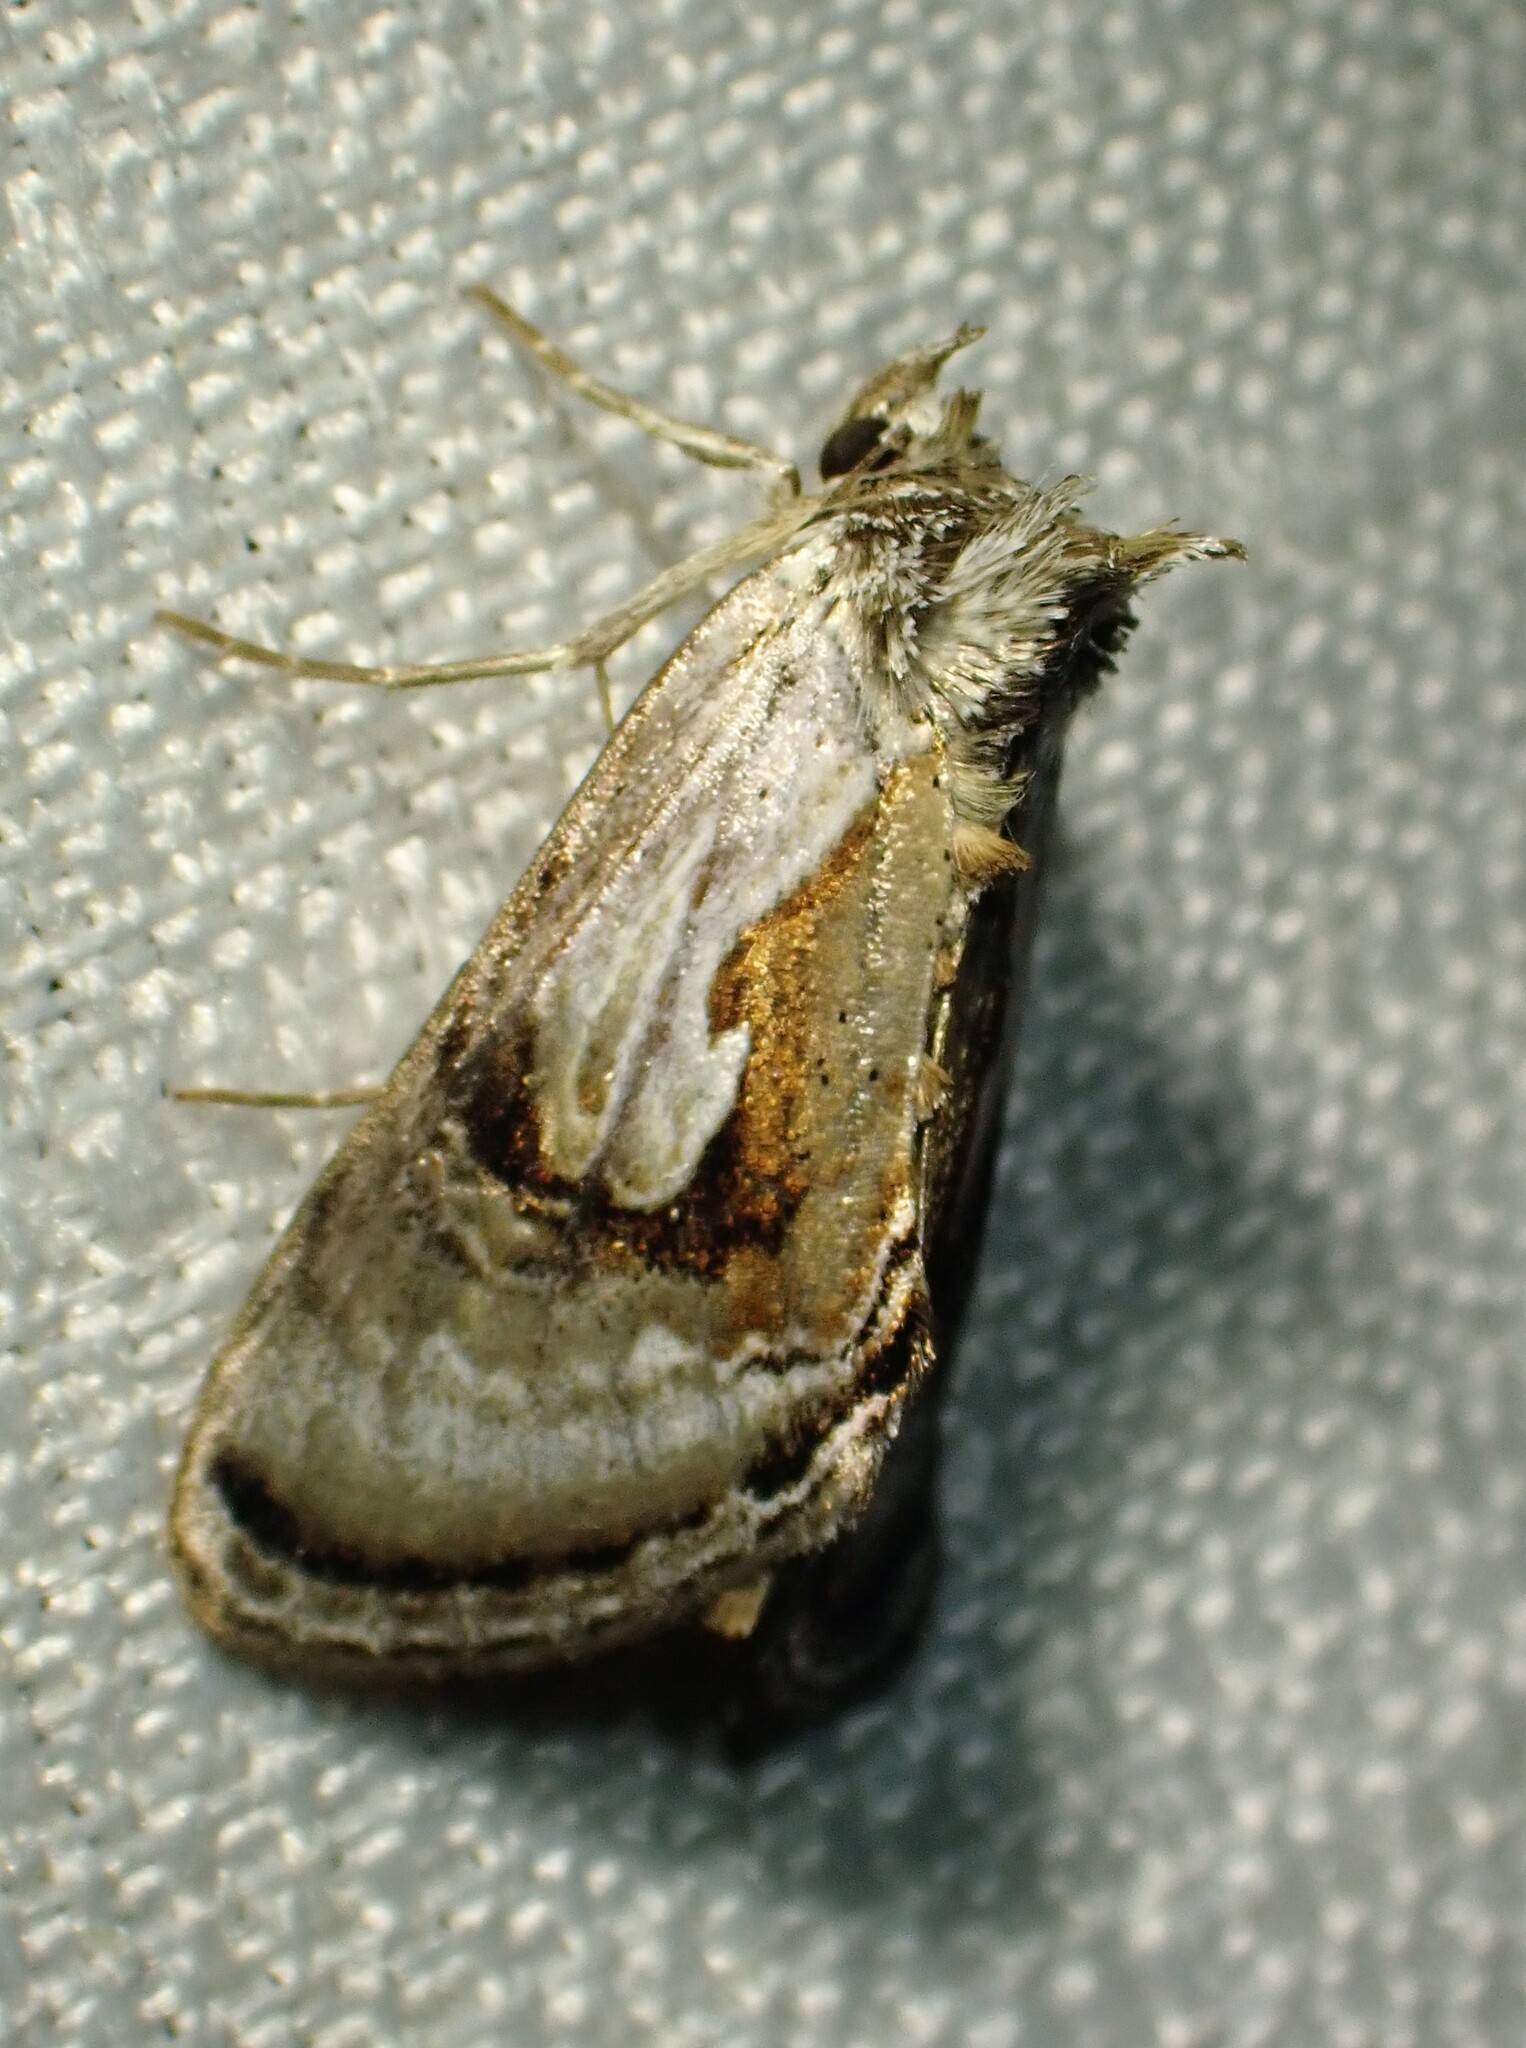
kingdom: Animalia
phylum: Arthropoda
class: Insecta
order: Lepidoptera
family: Noctuidae
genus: Chrysanympha
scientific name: Chrysanympha formosa
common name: Formosa looper moth
